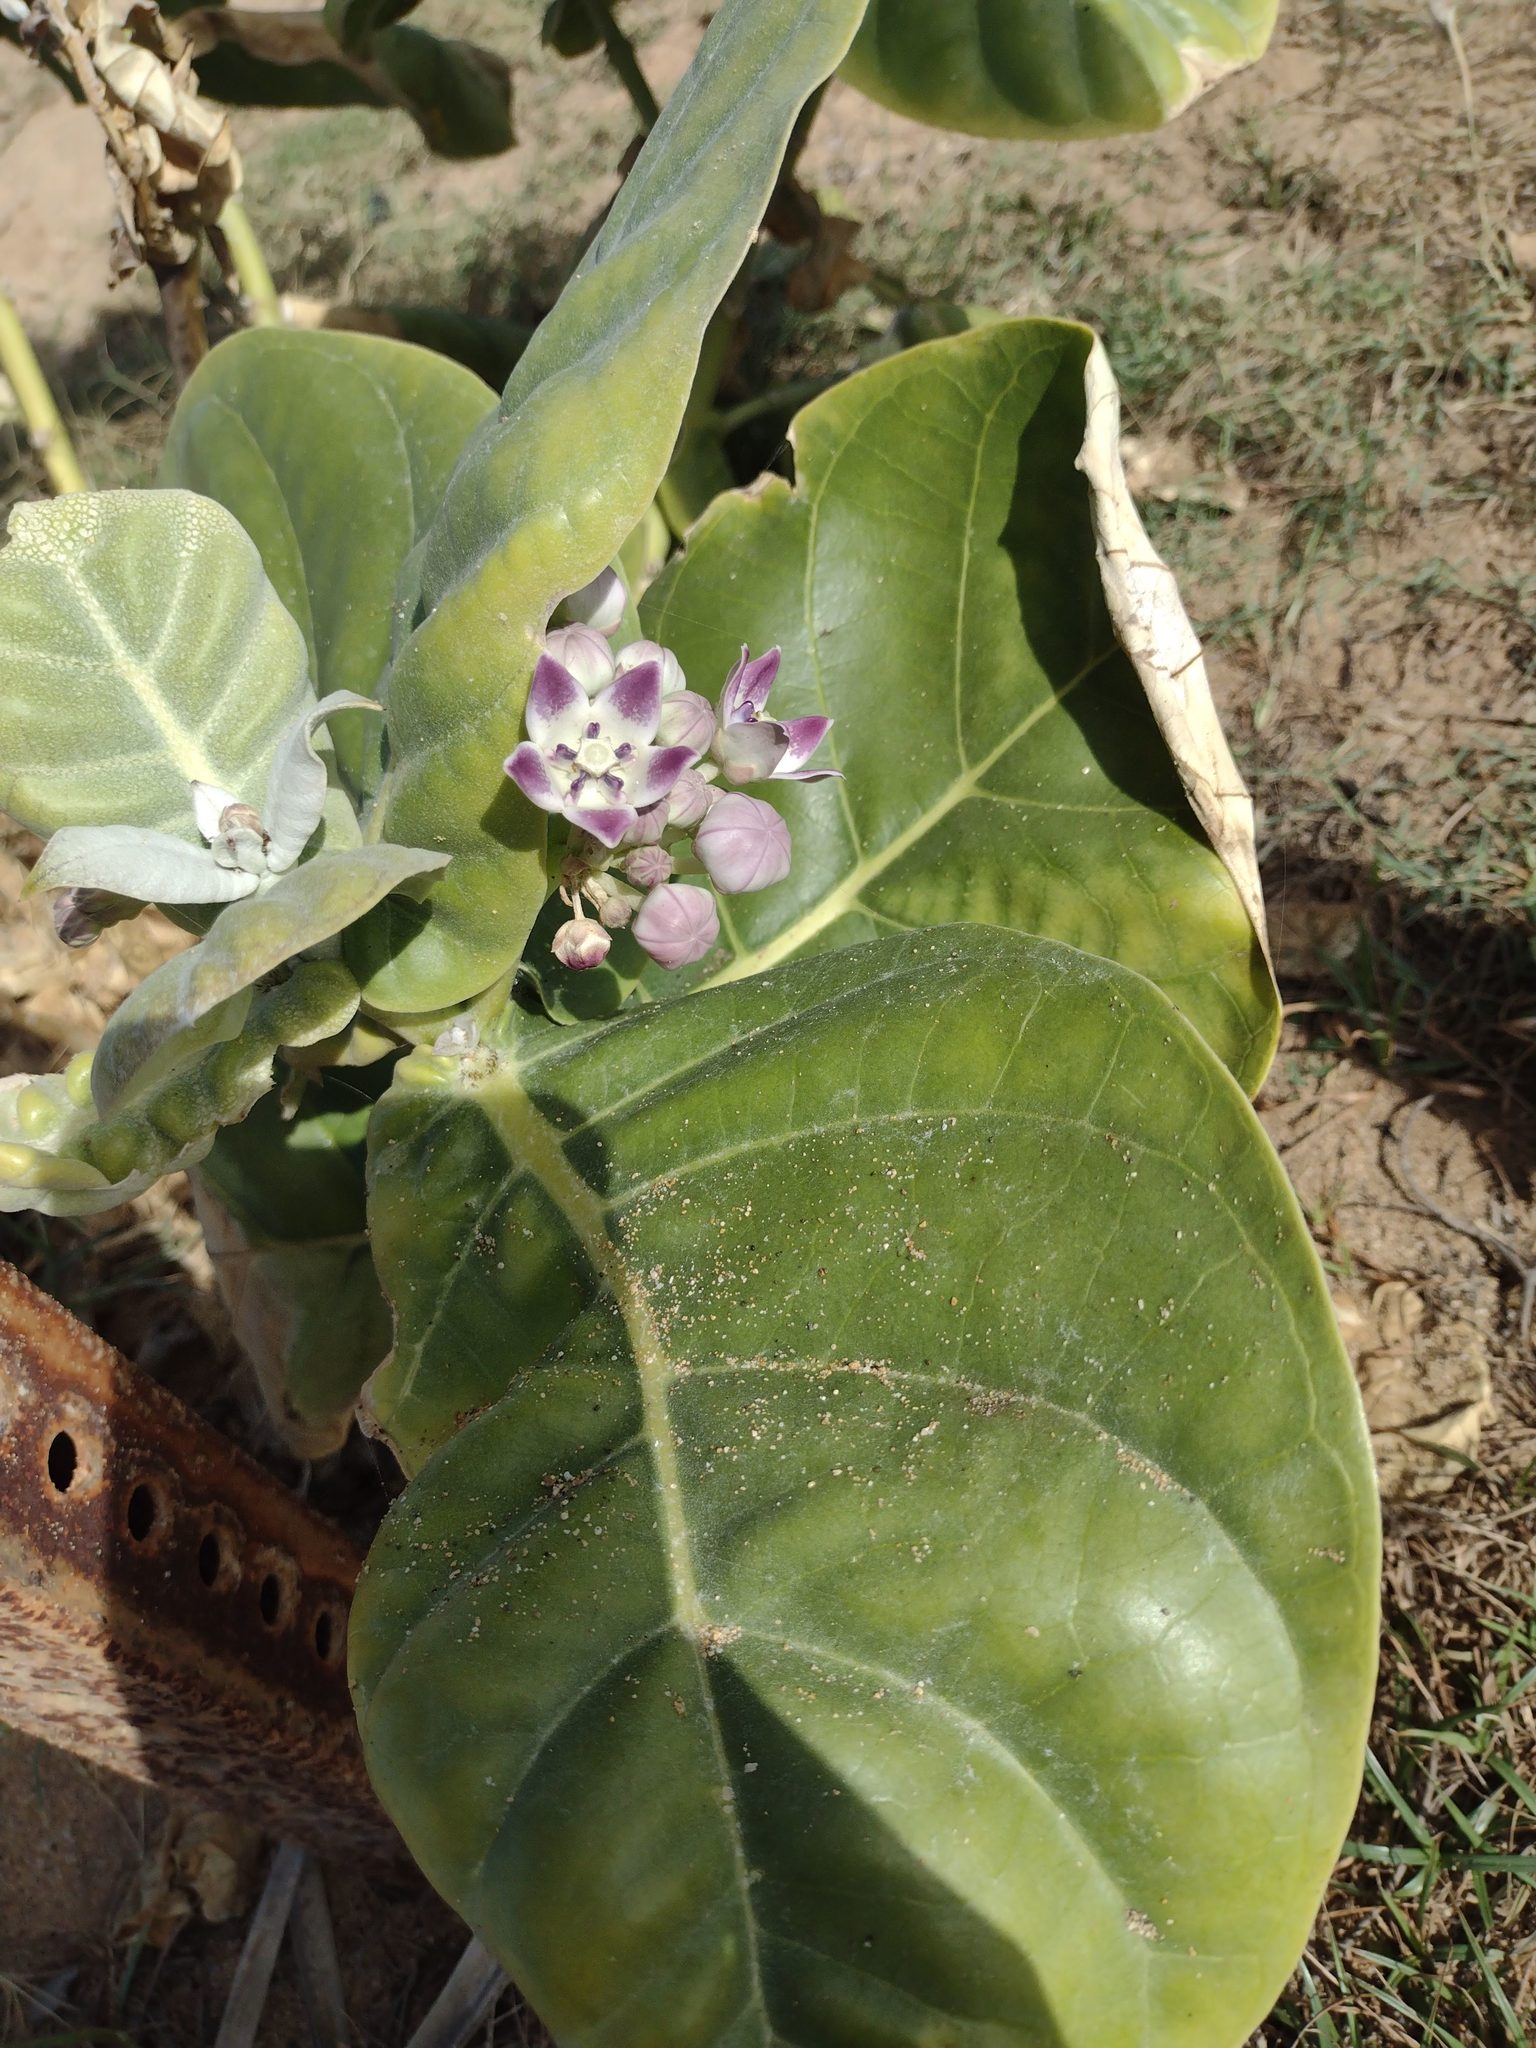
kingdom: Plantae
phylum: Tracheophyta
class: Magnoliopsida
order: Gentianales
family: Apocynaceae
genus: Calotropis
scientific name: Calotropis procera
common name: Roostertree
